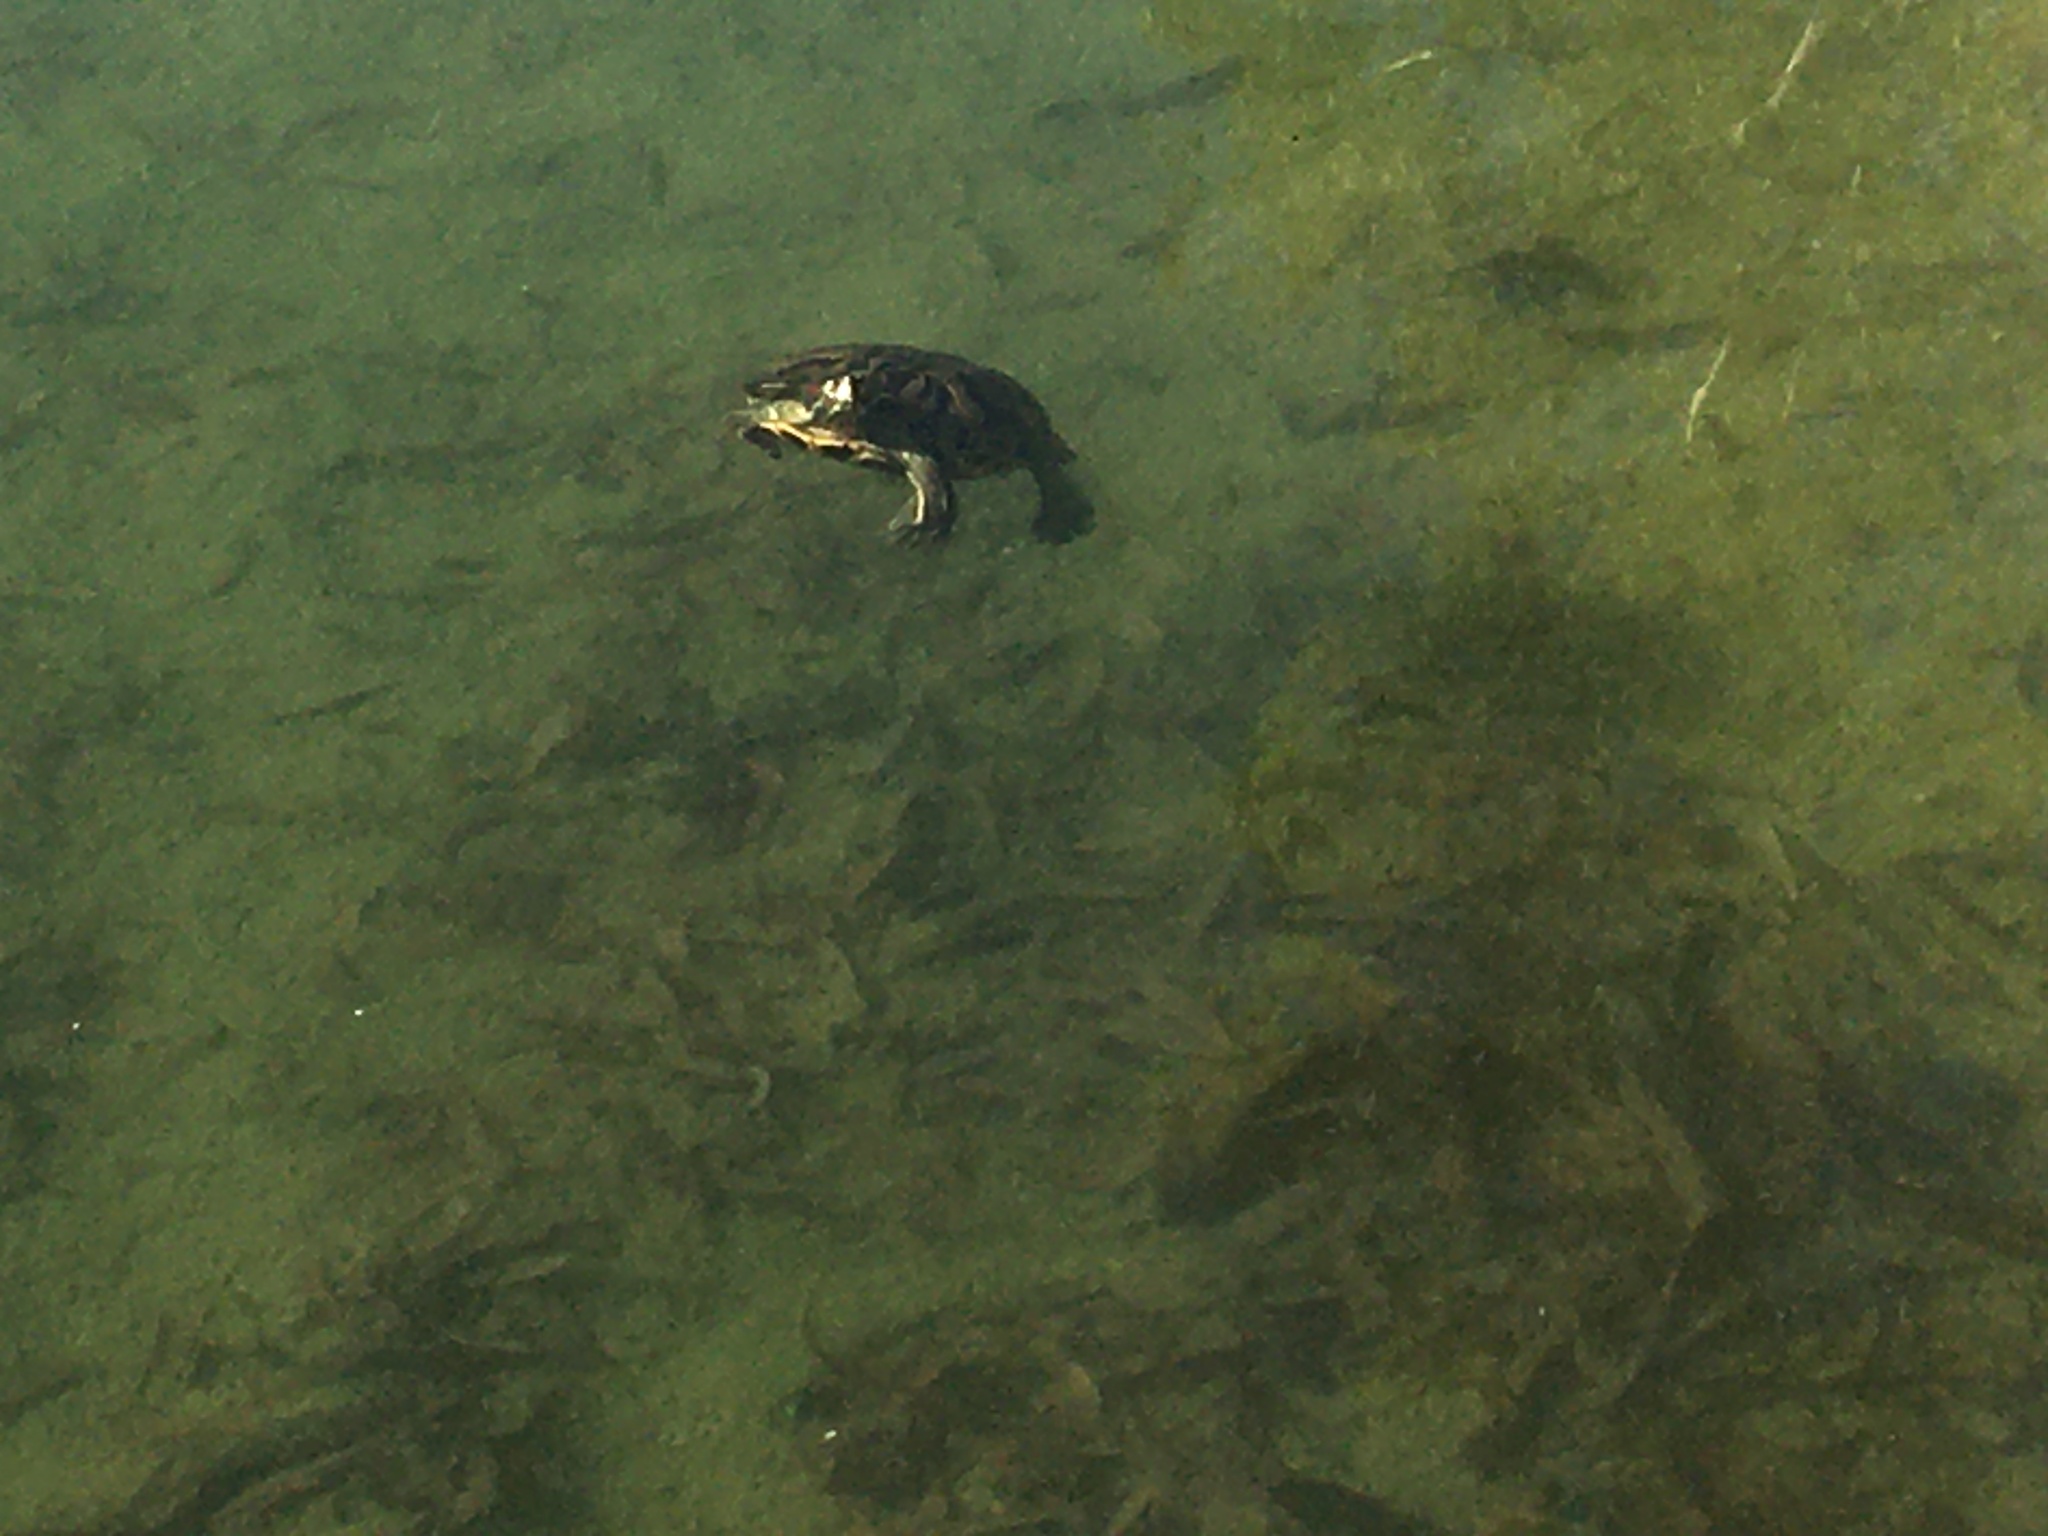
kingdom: Animalia
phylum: Chordata
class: Testudines
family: Emydidae
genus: Trachemys
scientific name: Trachemys scripta
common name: Slider
